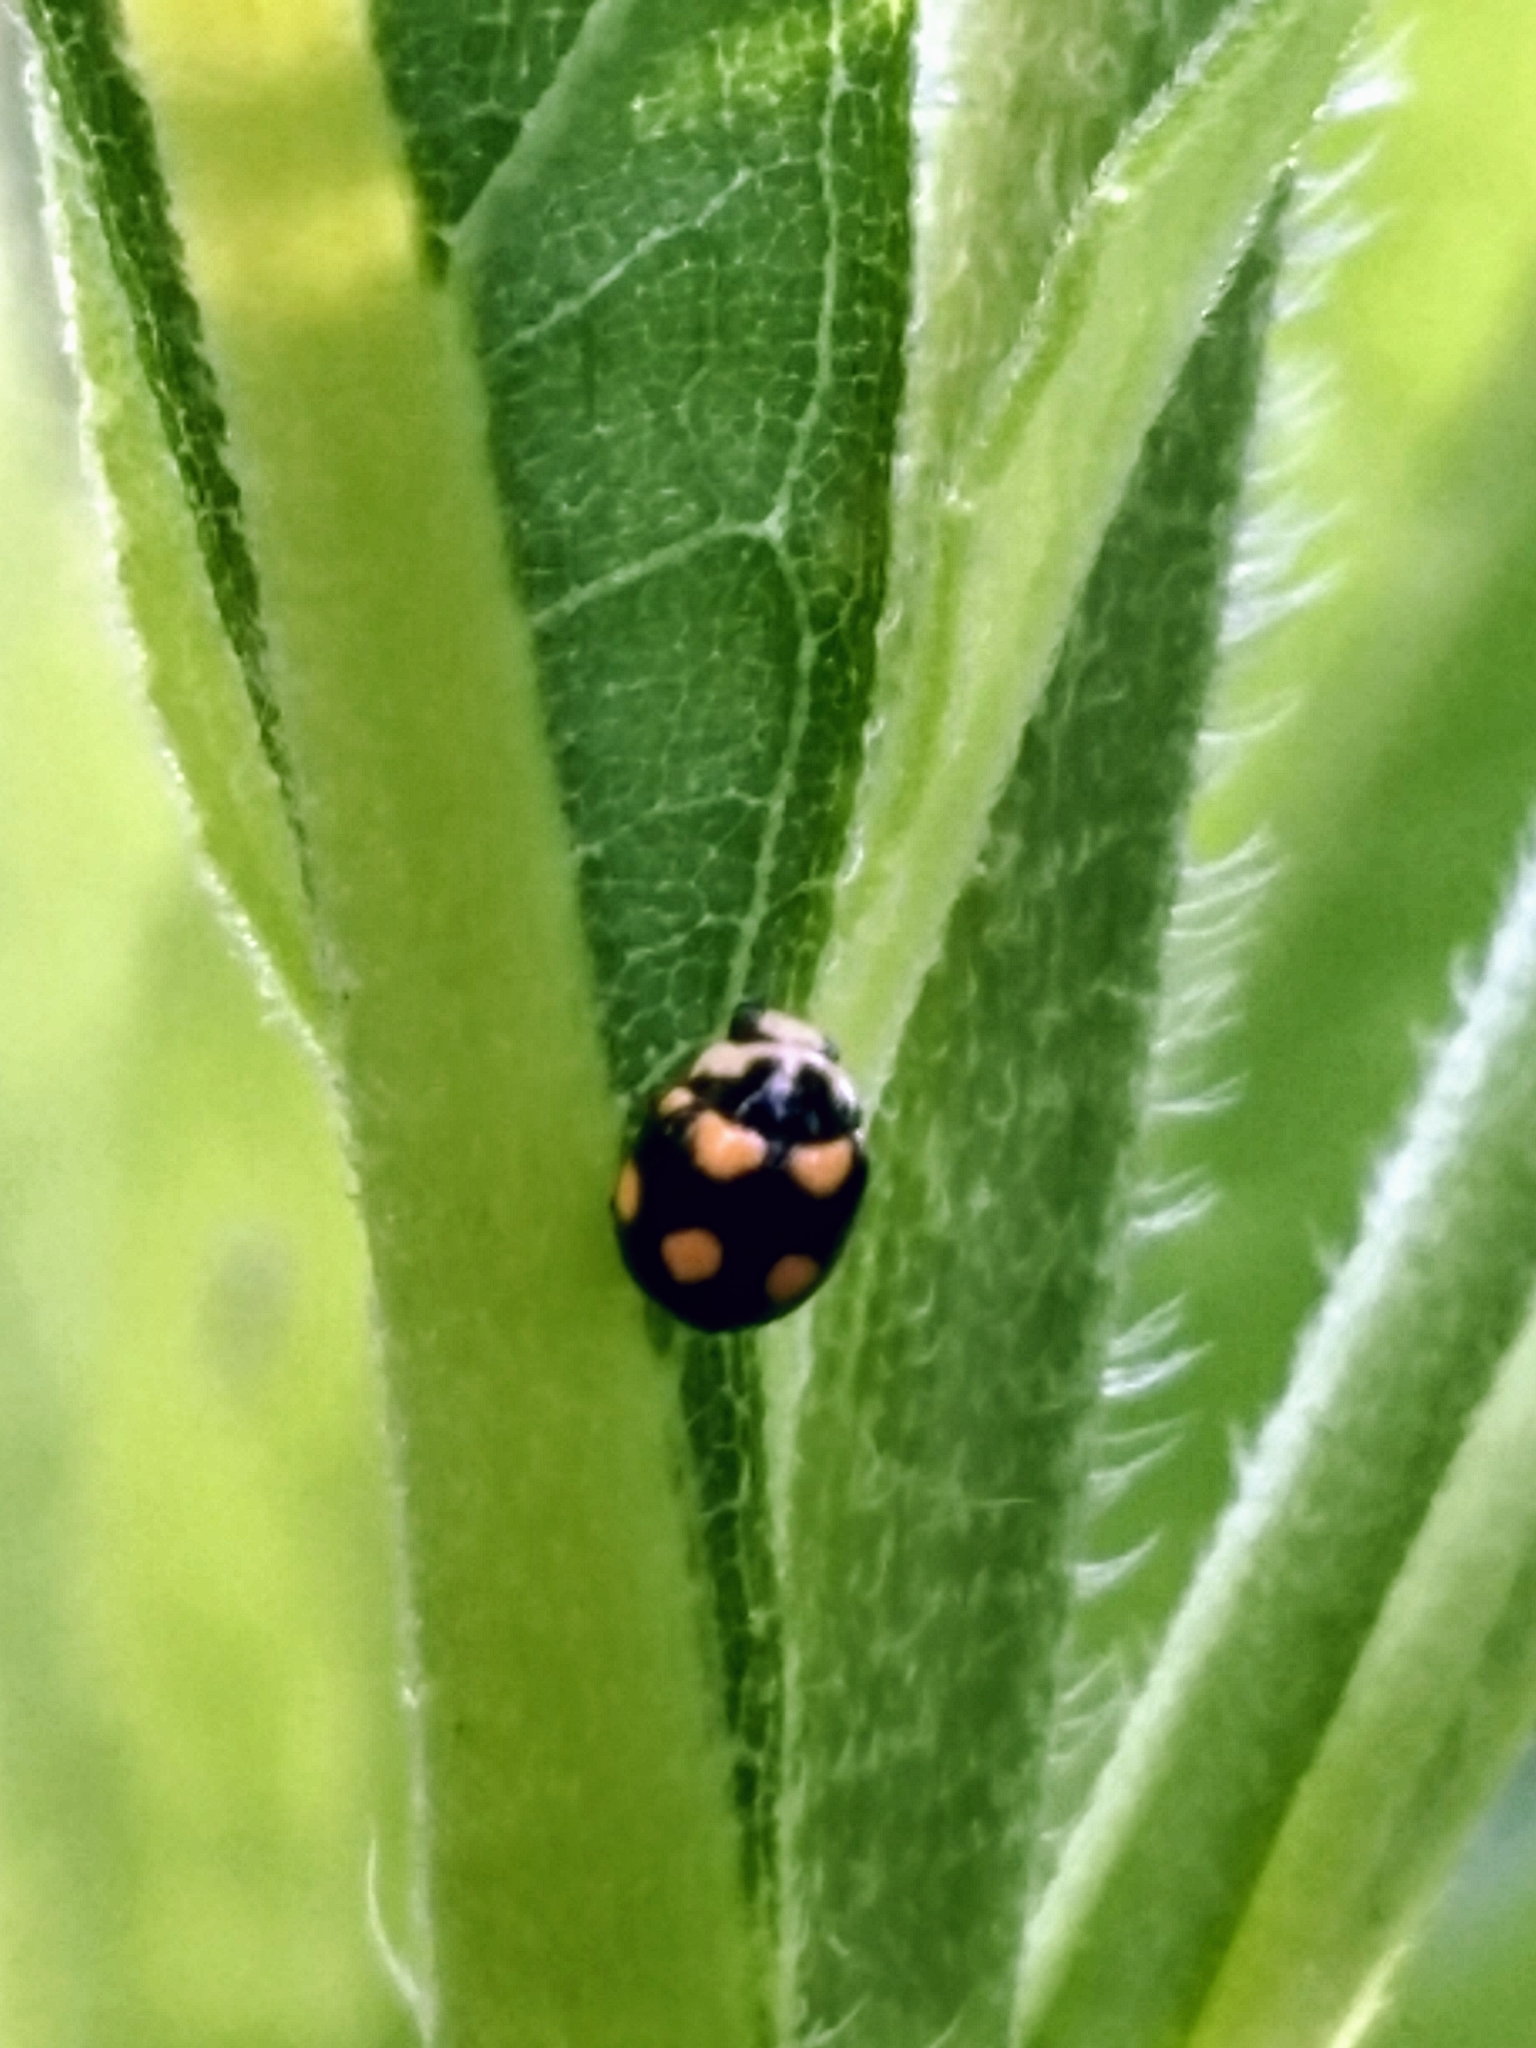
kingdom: Animalia
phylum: Arthropoda
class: Insecta
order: Coleoptera
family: Coccinellidae
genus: Brachiacantha
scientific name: Brachiacantha ursina
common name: Ursine spurleg lady beetle
